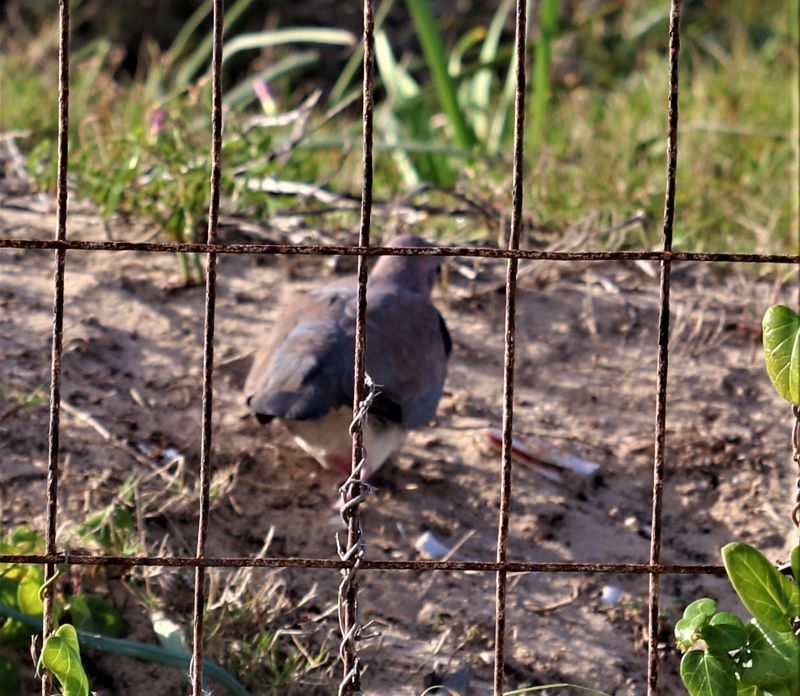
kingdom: Animalia
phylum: Chordata
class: Aves
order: Columbiformes
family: Columbidae
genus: Spilopelia
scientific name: Spilopelia senegalensis
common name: Laughing dove
